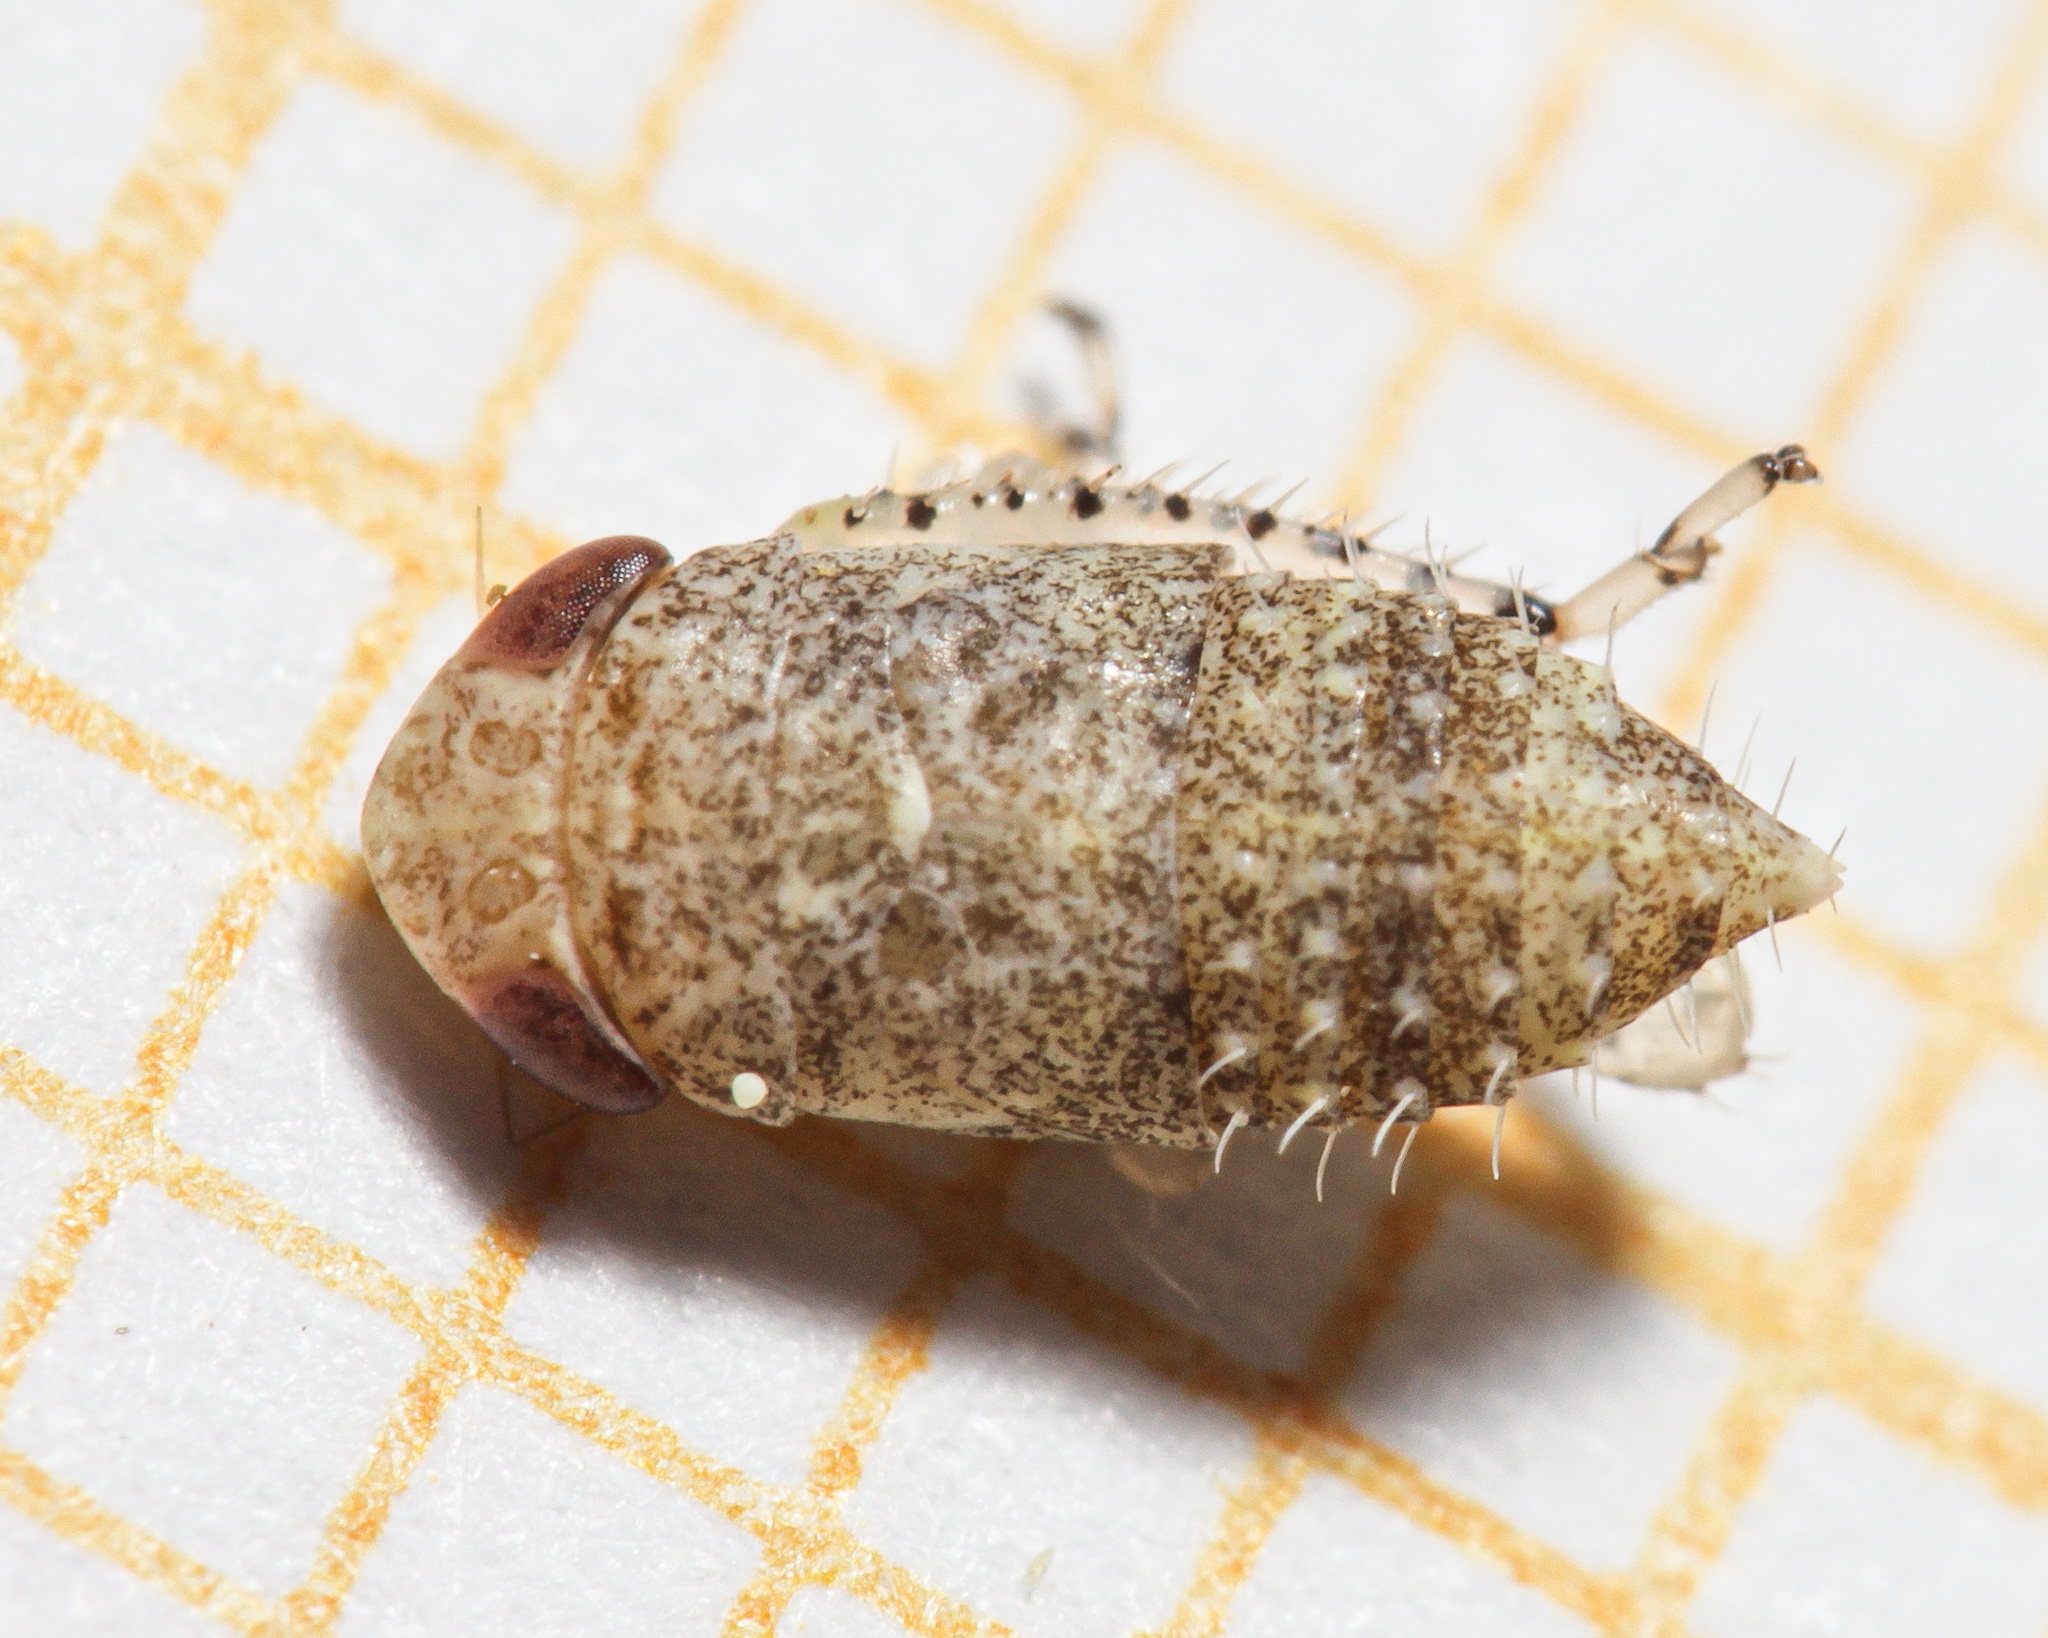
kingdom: Animalia
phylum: Arthropoda
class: Insecta
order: Hemiptera
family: Cicadellidae
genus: Allygidius
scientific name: Allygidius atomarius
